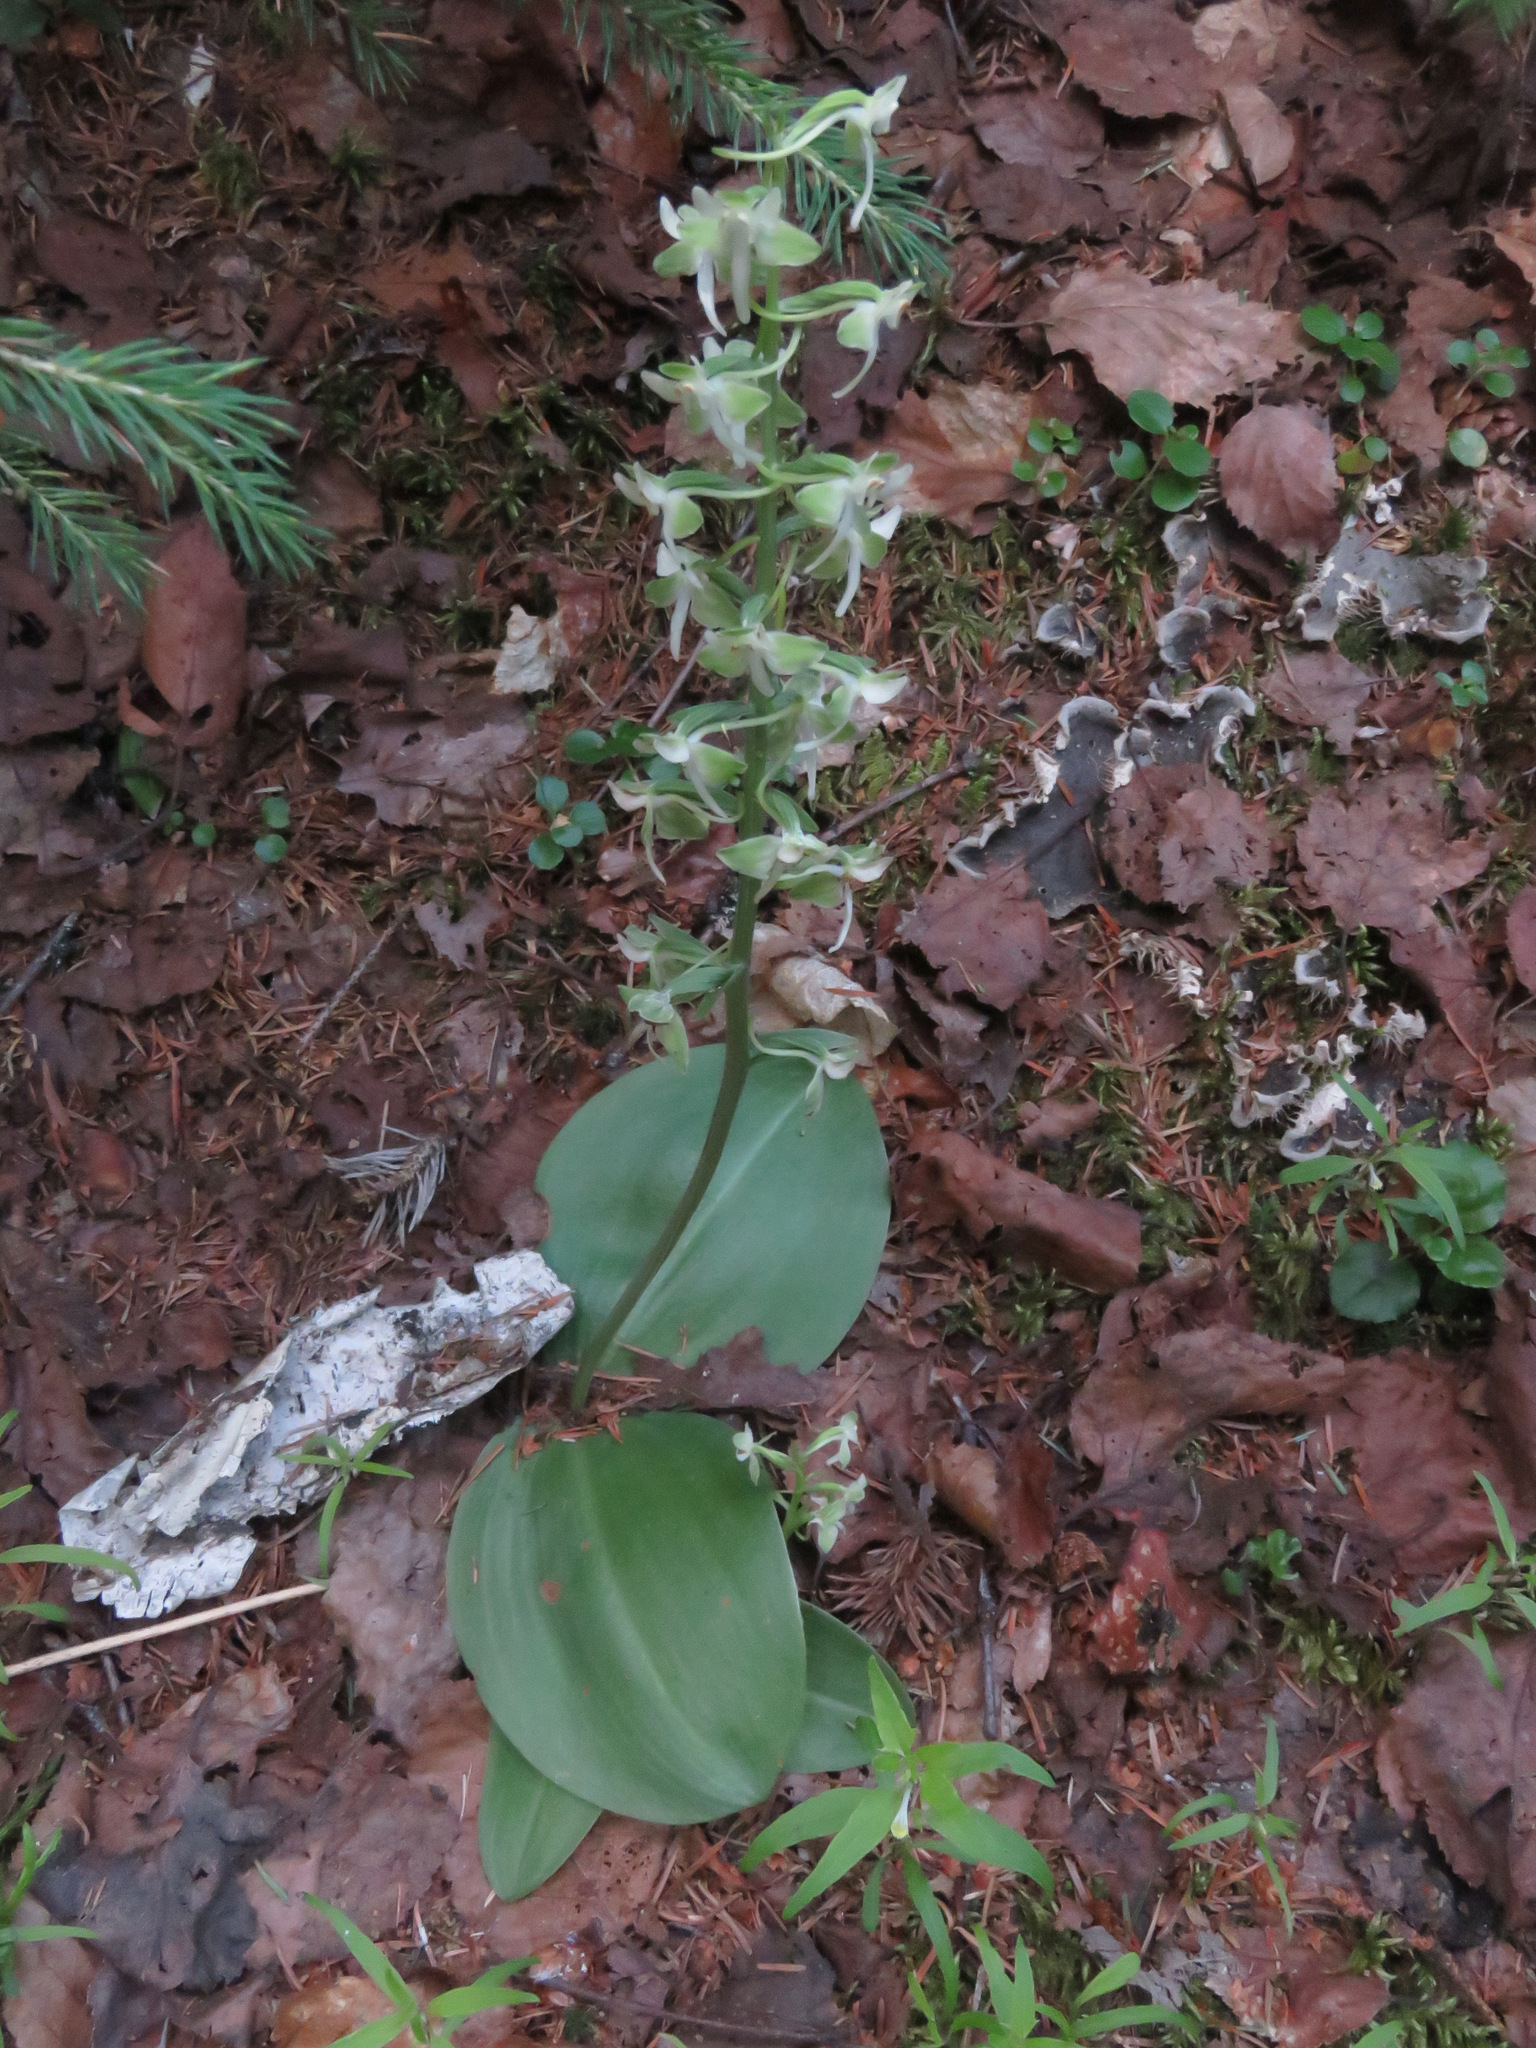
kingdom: Plantae
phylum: Tracheophyta
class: Liliopsida
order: Asparagales
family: Orchidaceae
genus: Platanthera
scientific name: Platanthera orbiculata
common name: Large round-leaved orchid
